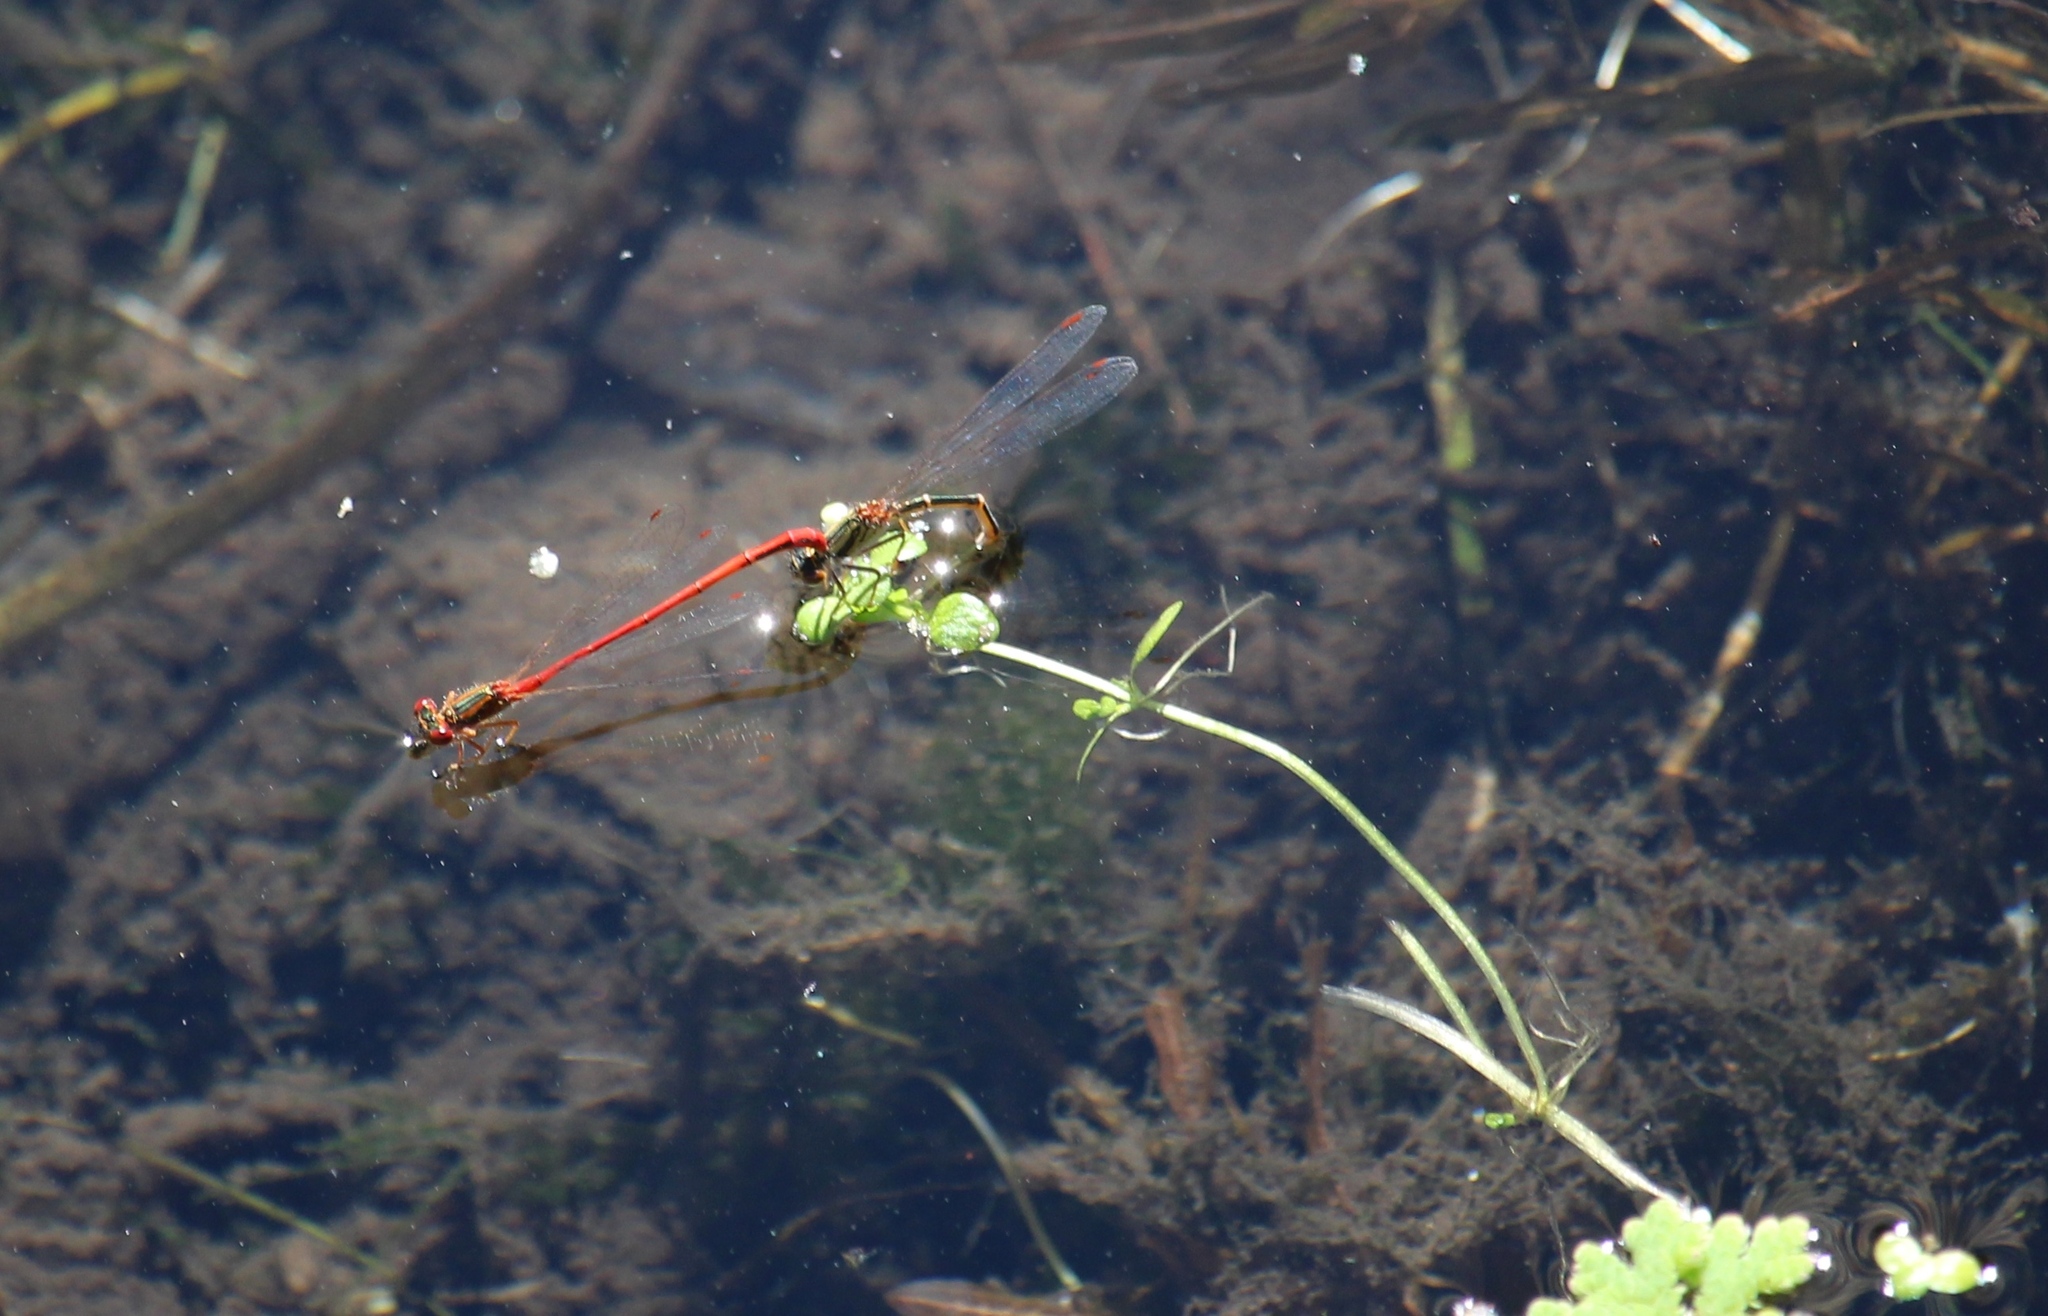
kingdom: Animalia
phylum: Arthropoda
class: Insecta
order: Odonata
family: Coenagrionidae
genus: Xanthocnemis
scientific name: Xanthocnemis zealandica
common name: Common redcoat damselfly
